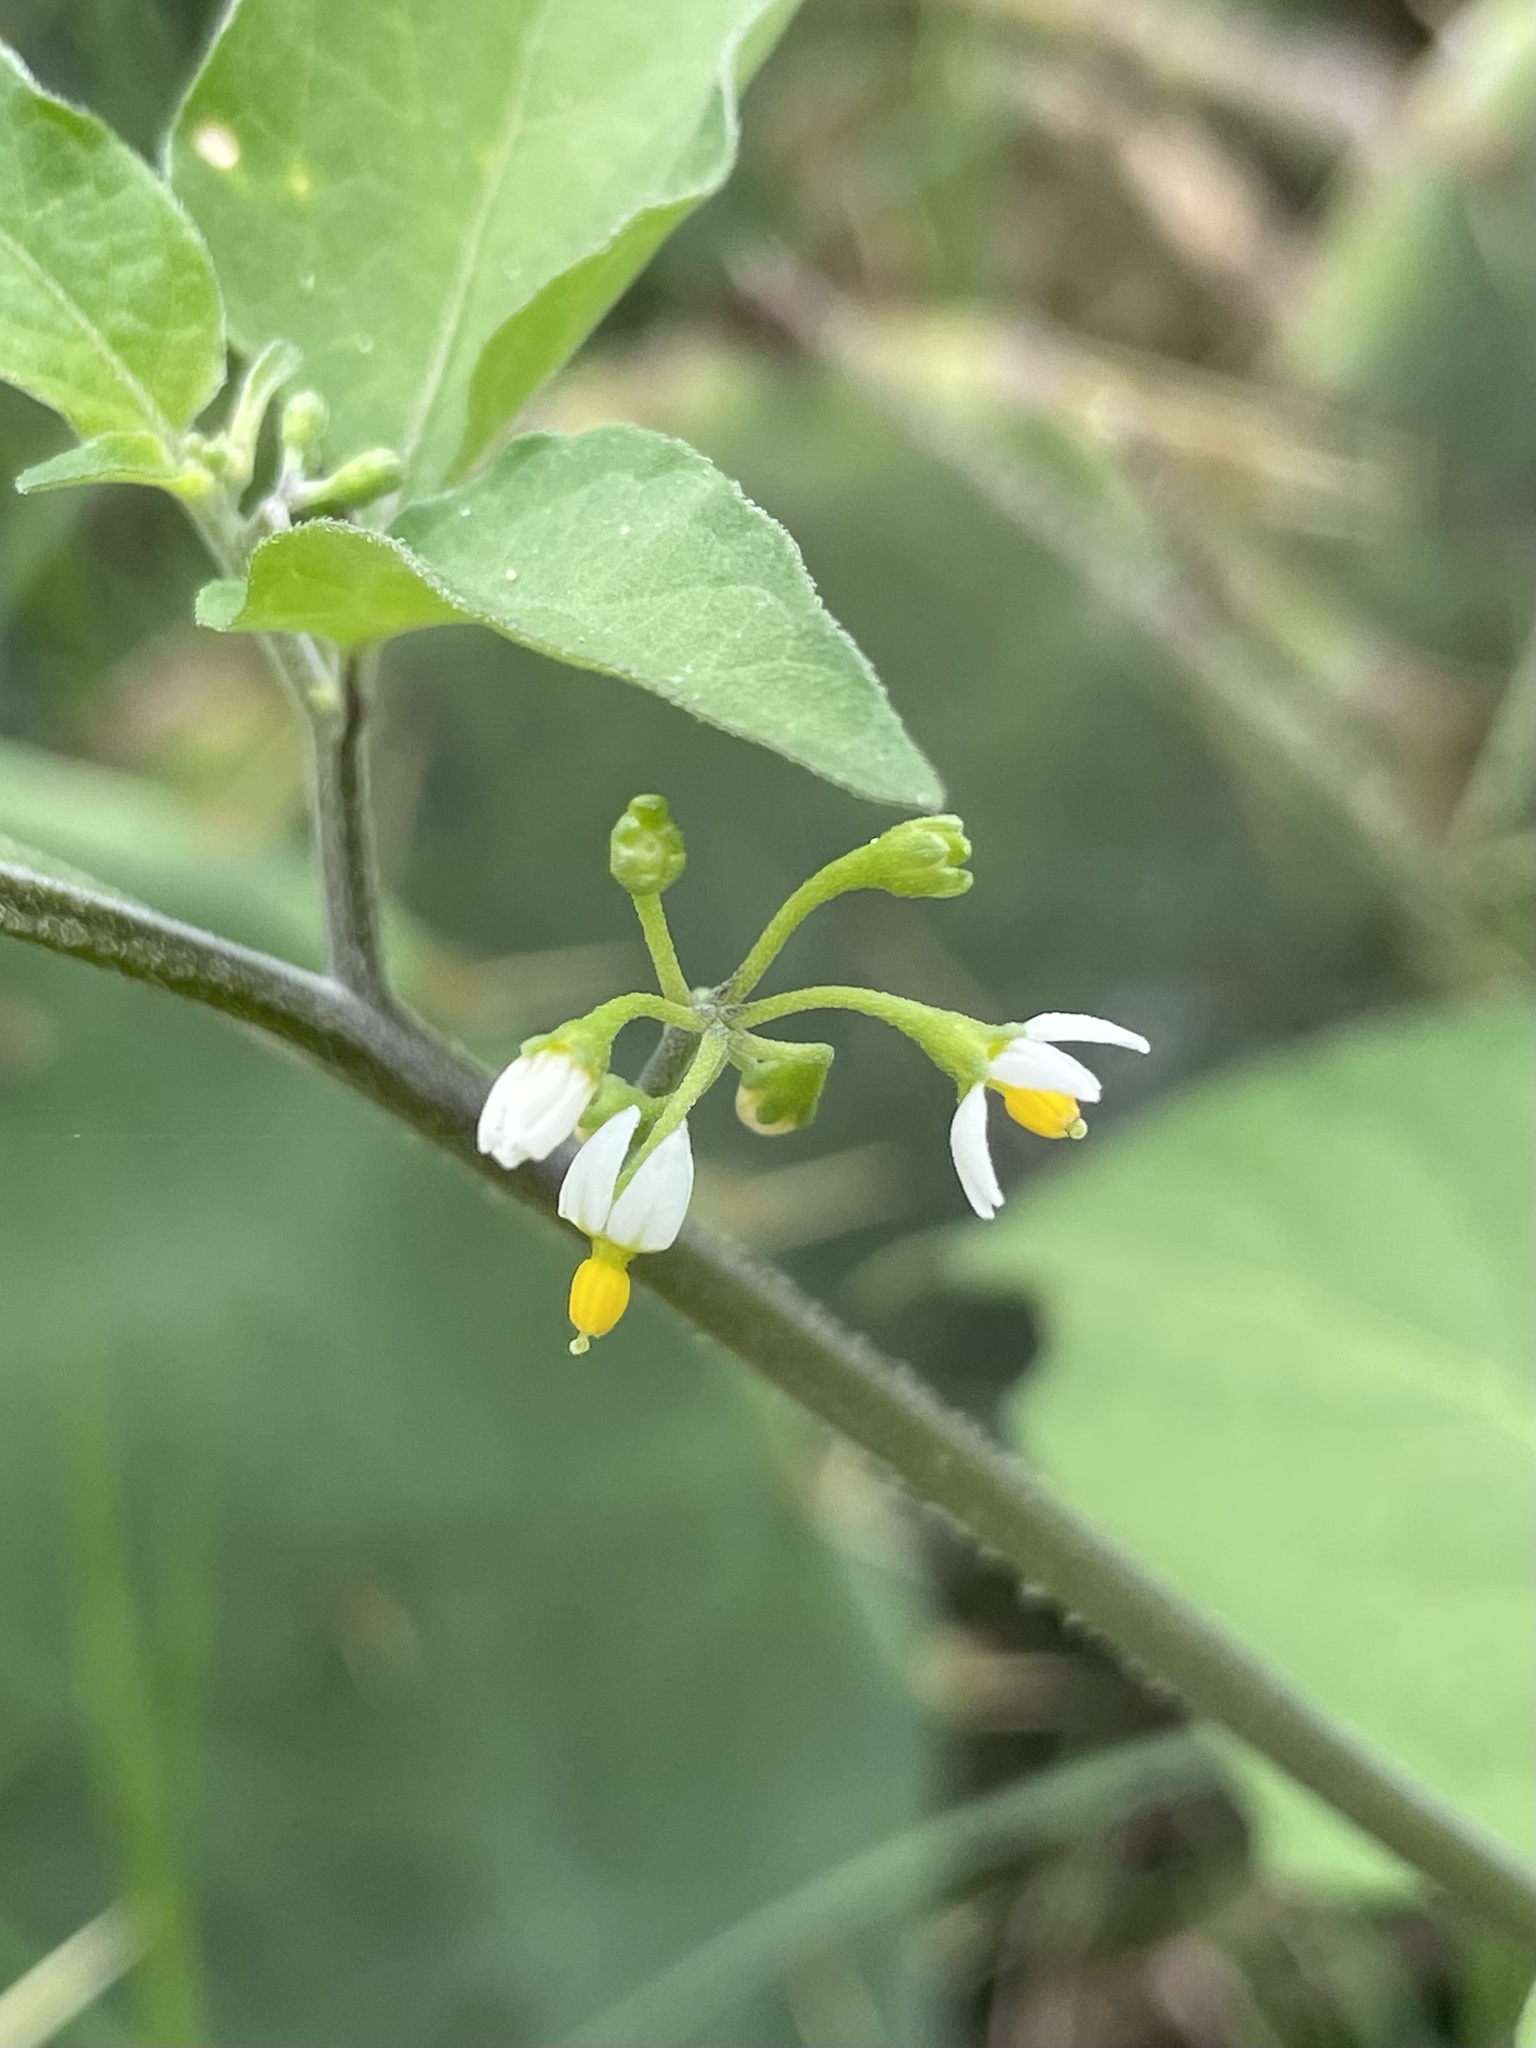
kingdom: Plantae
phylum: Tracheophyta
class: Magnoliopsida
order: Solanales
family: Solanaceae
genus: Solanum
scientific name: Solanum americanum
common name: American black nightshade
